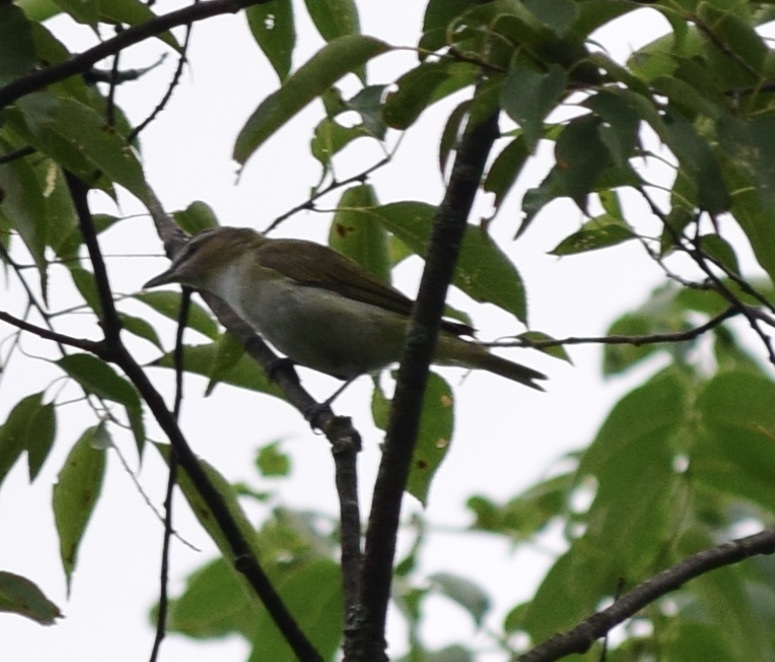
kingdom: Animalia
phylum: Chordata
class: Aves
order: Passeriformes
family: Vireonidae
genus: Vireo
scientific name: Vireo olivaceus
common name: Red-eyed vireo
